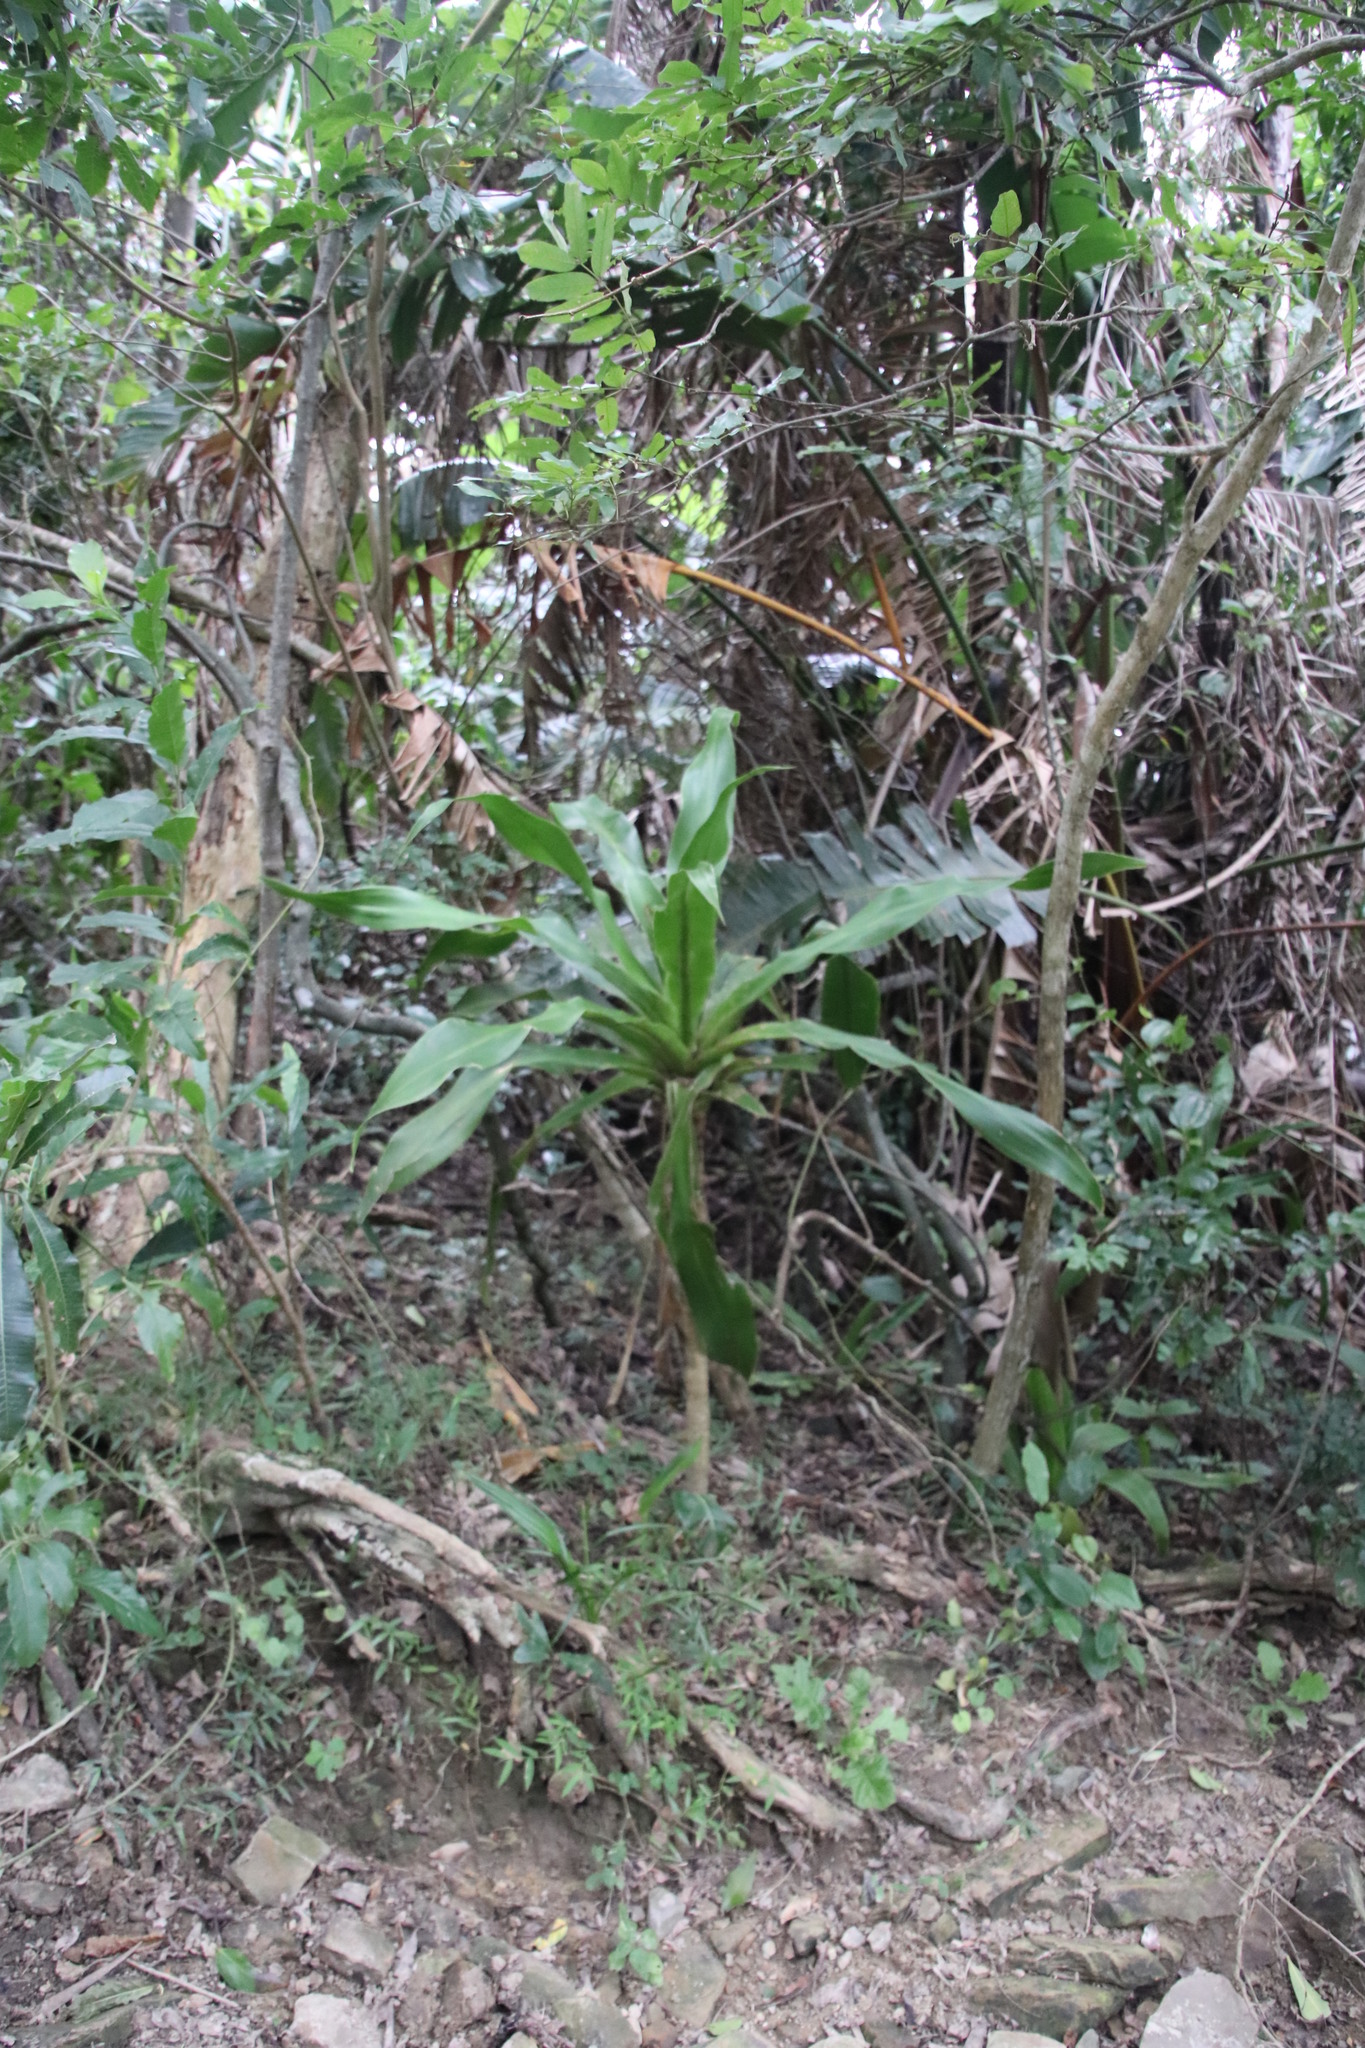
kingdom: Plantae
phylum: Tracheophyta
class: Liliopsida
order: Asparagales
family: Asparagaceae
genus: Dracaena
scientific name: Dracaena aletriformis
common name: Large-leaved dragon tree
